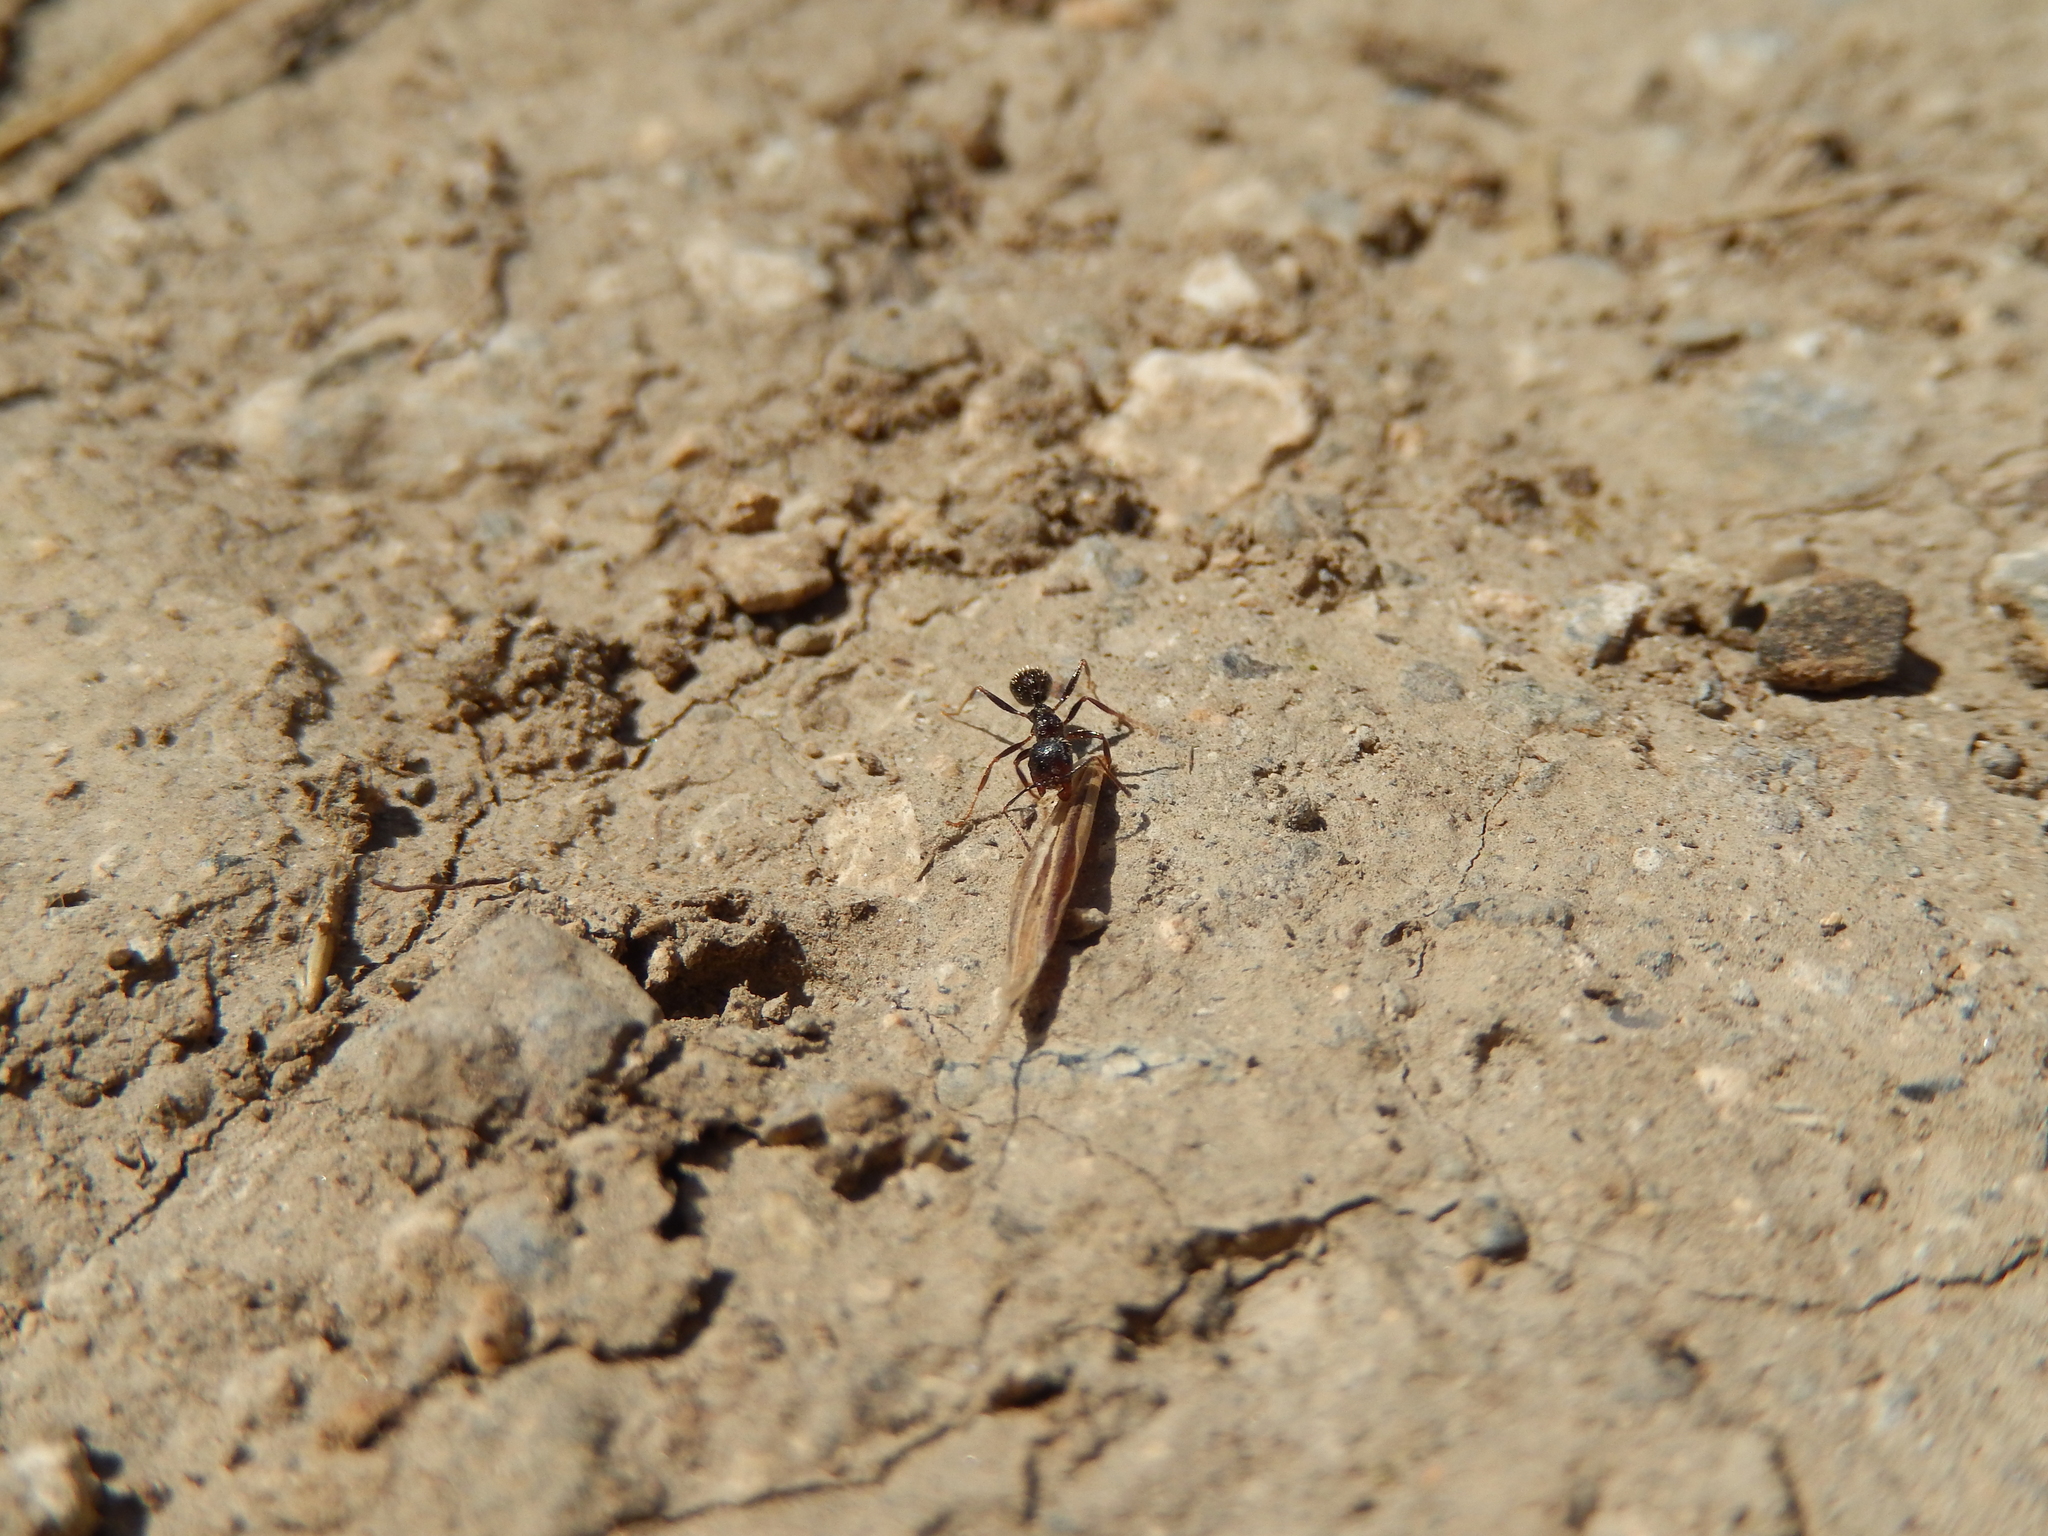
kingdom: Animalia
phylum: Arthropoda
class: Insecta
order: Hymenoptera
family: Formicidae
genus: Messor
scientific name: Messor structor
